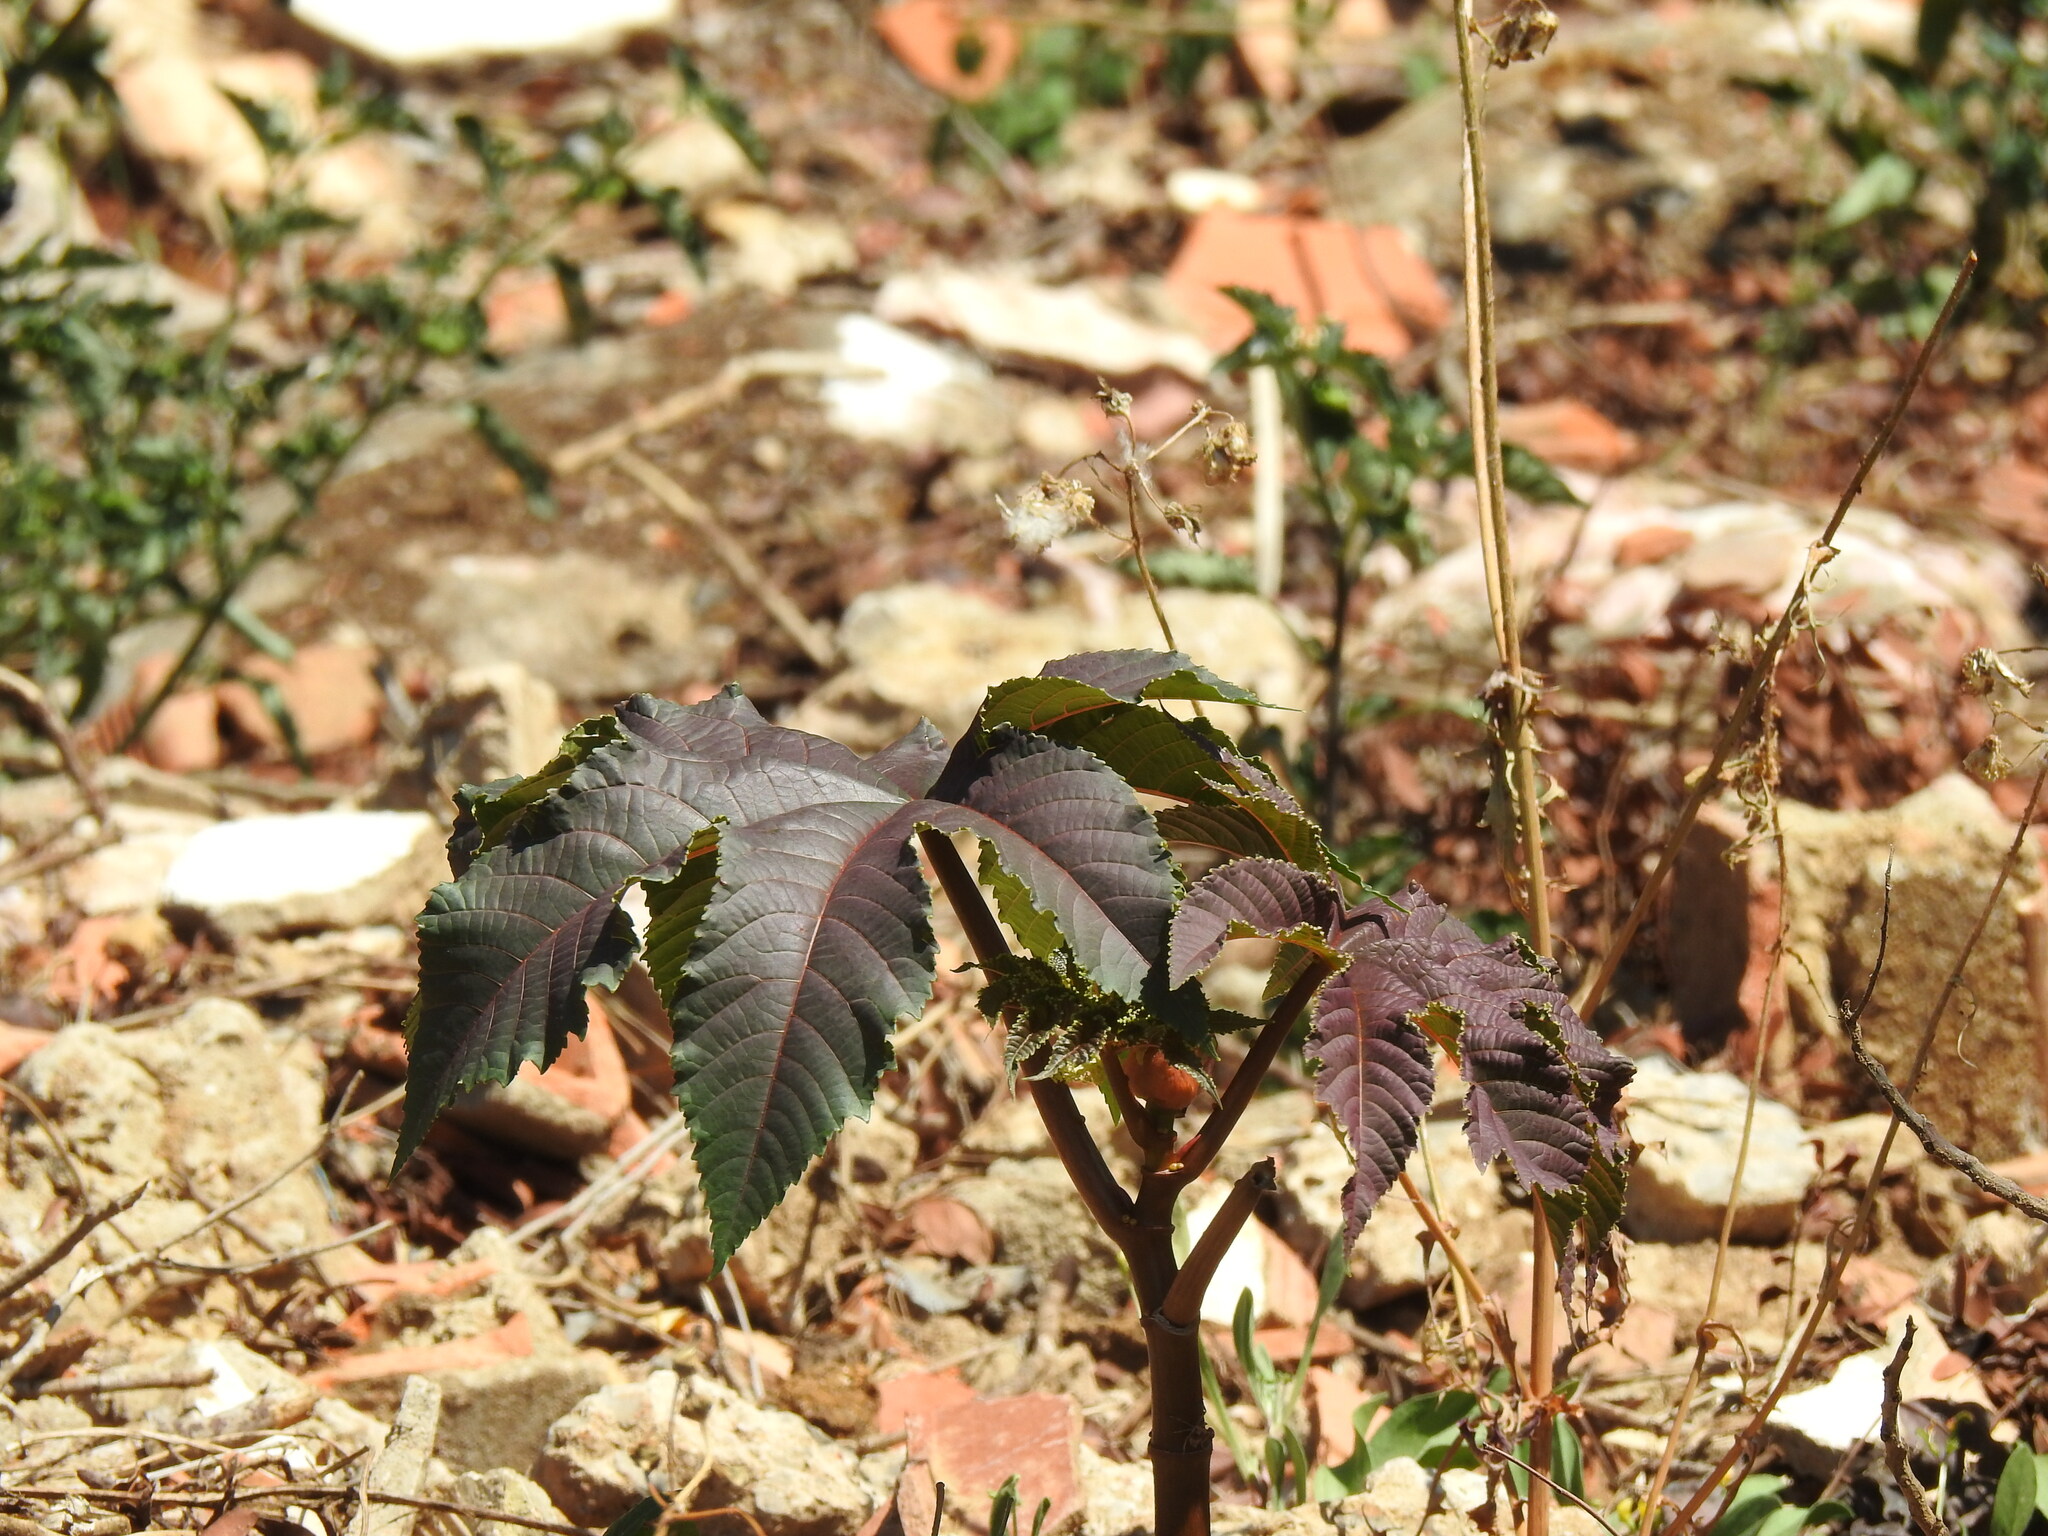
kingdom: Plantae
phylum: Tracheophyta
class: Magnoliopsida
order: Malpighiales
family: Euphorbiaceae
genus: Ricinus
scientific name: Ricinus communis
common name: Castor-oil-plant
